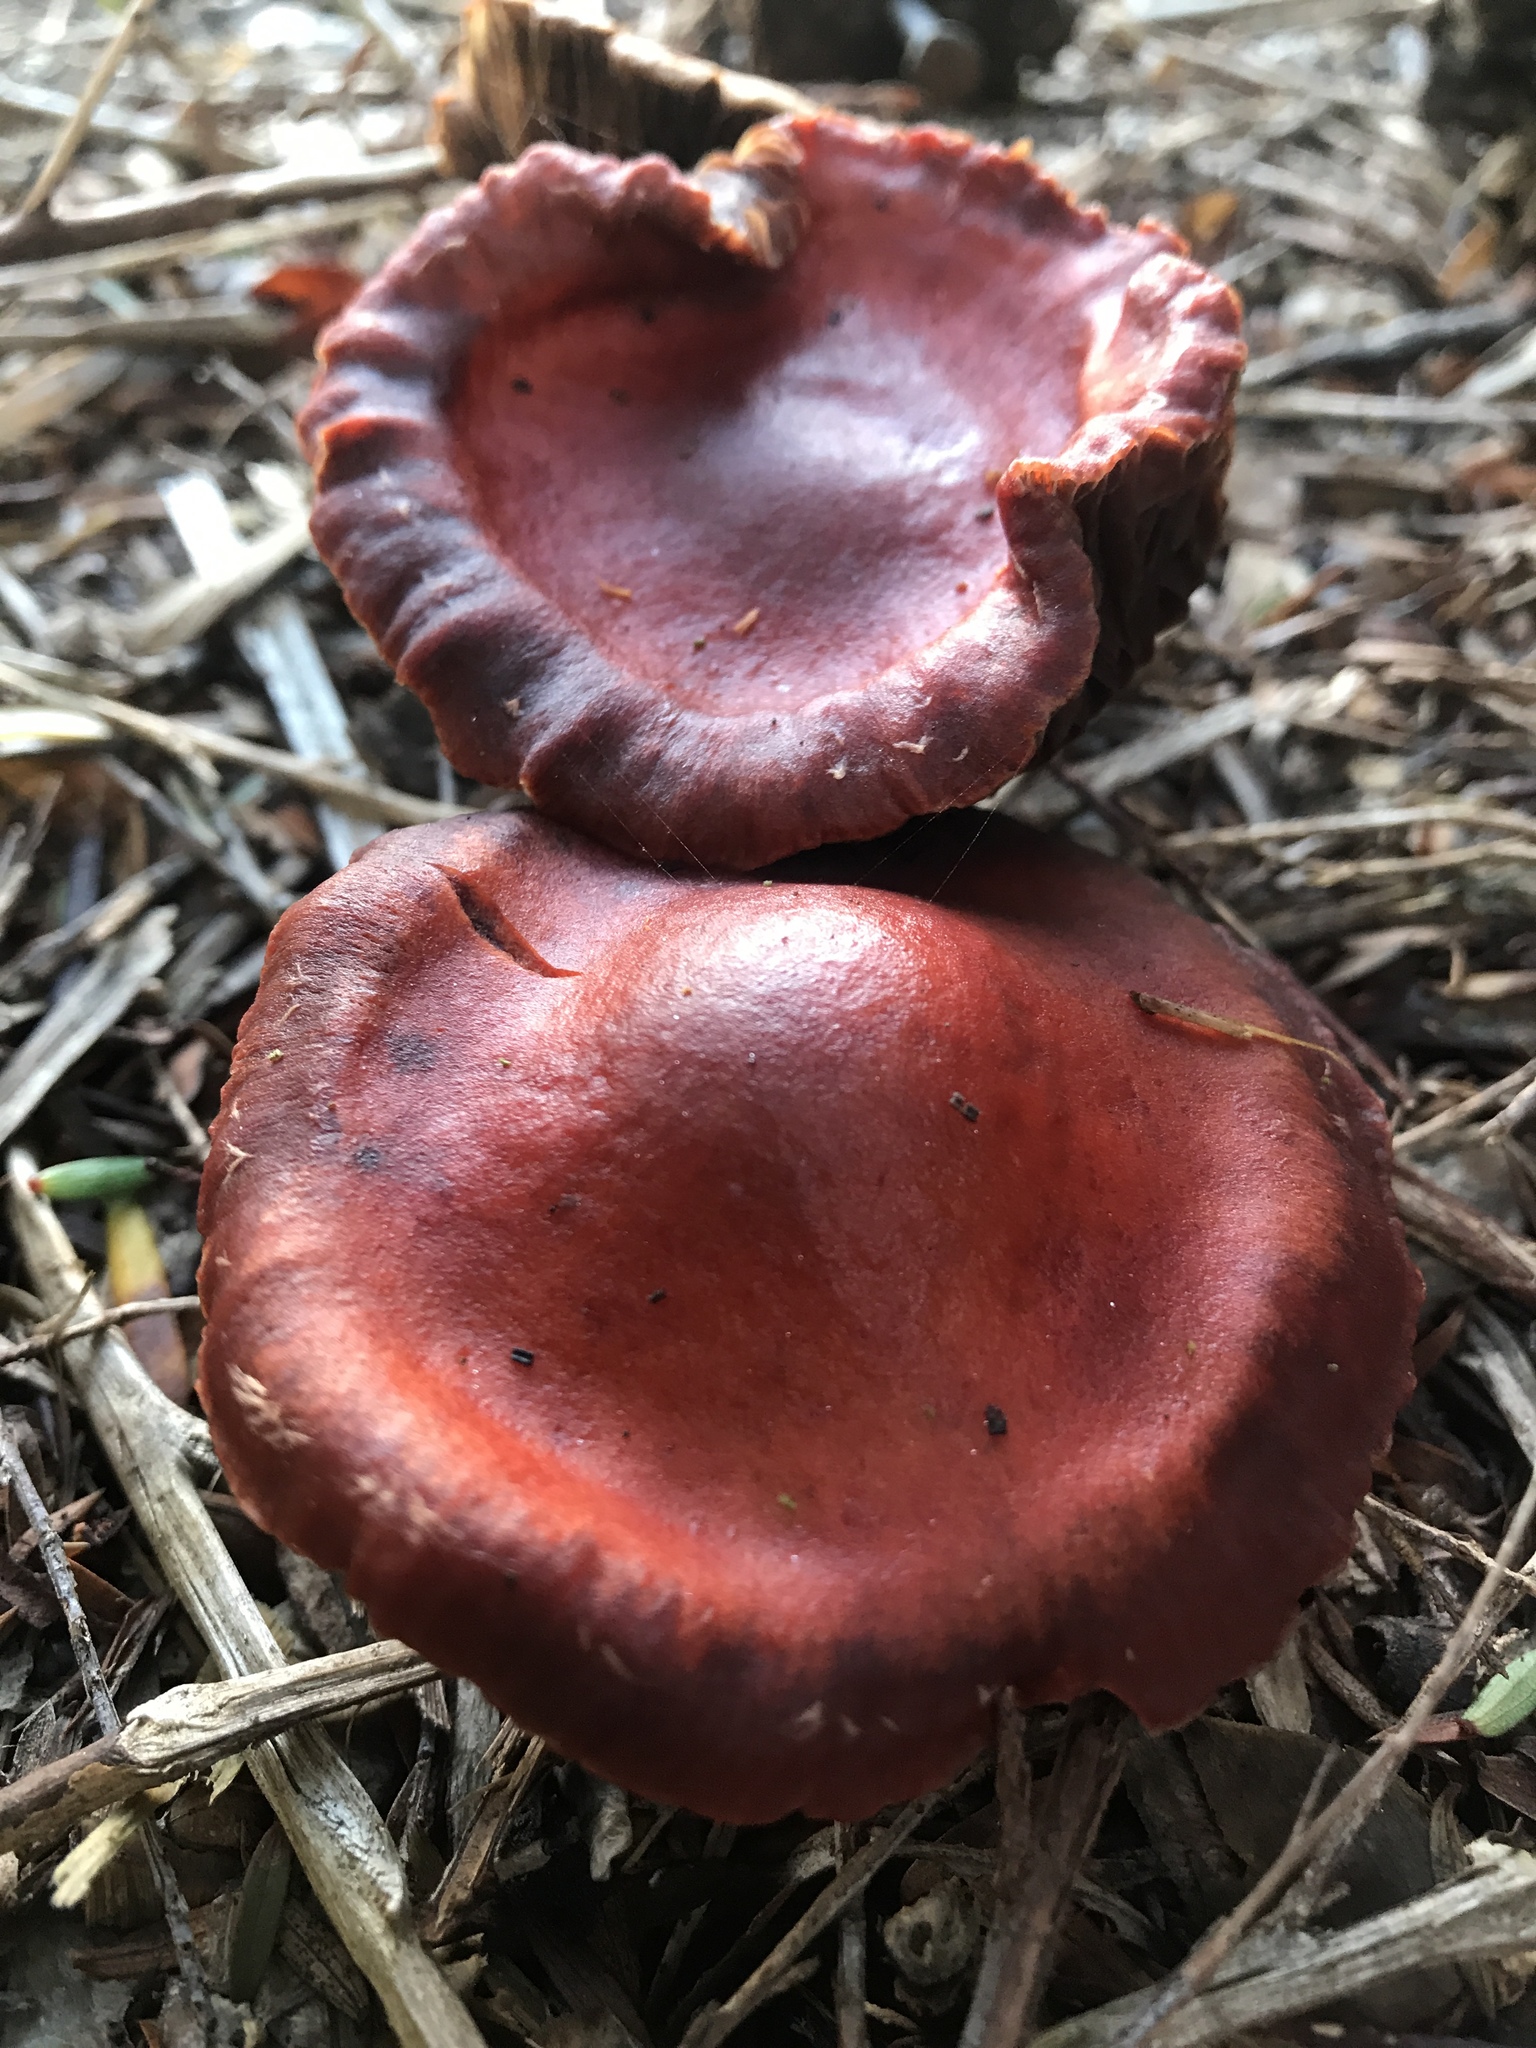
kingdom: Fungi
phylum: Basidiomycota
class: Agaricomycetes
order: Agaricales
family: Strophariaceae
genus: Leratiomyces
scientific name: Leratiomyces ceres
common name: Redlead roundhead
